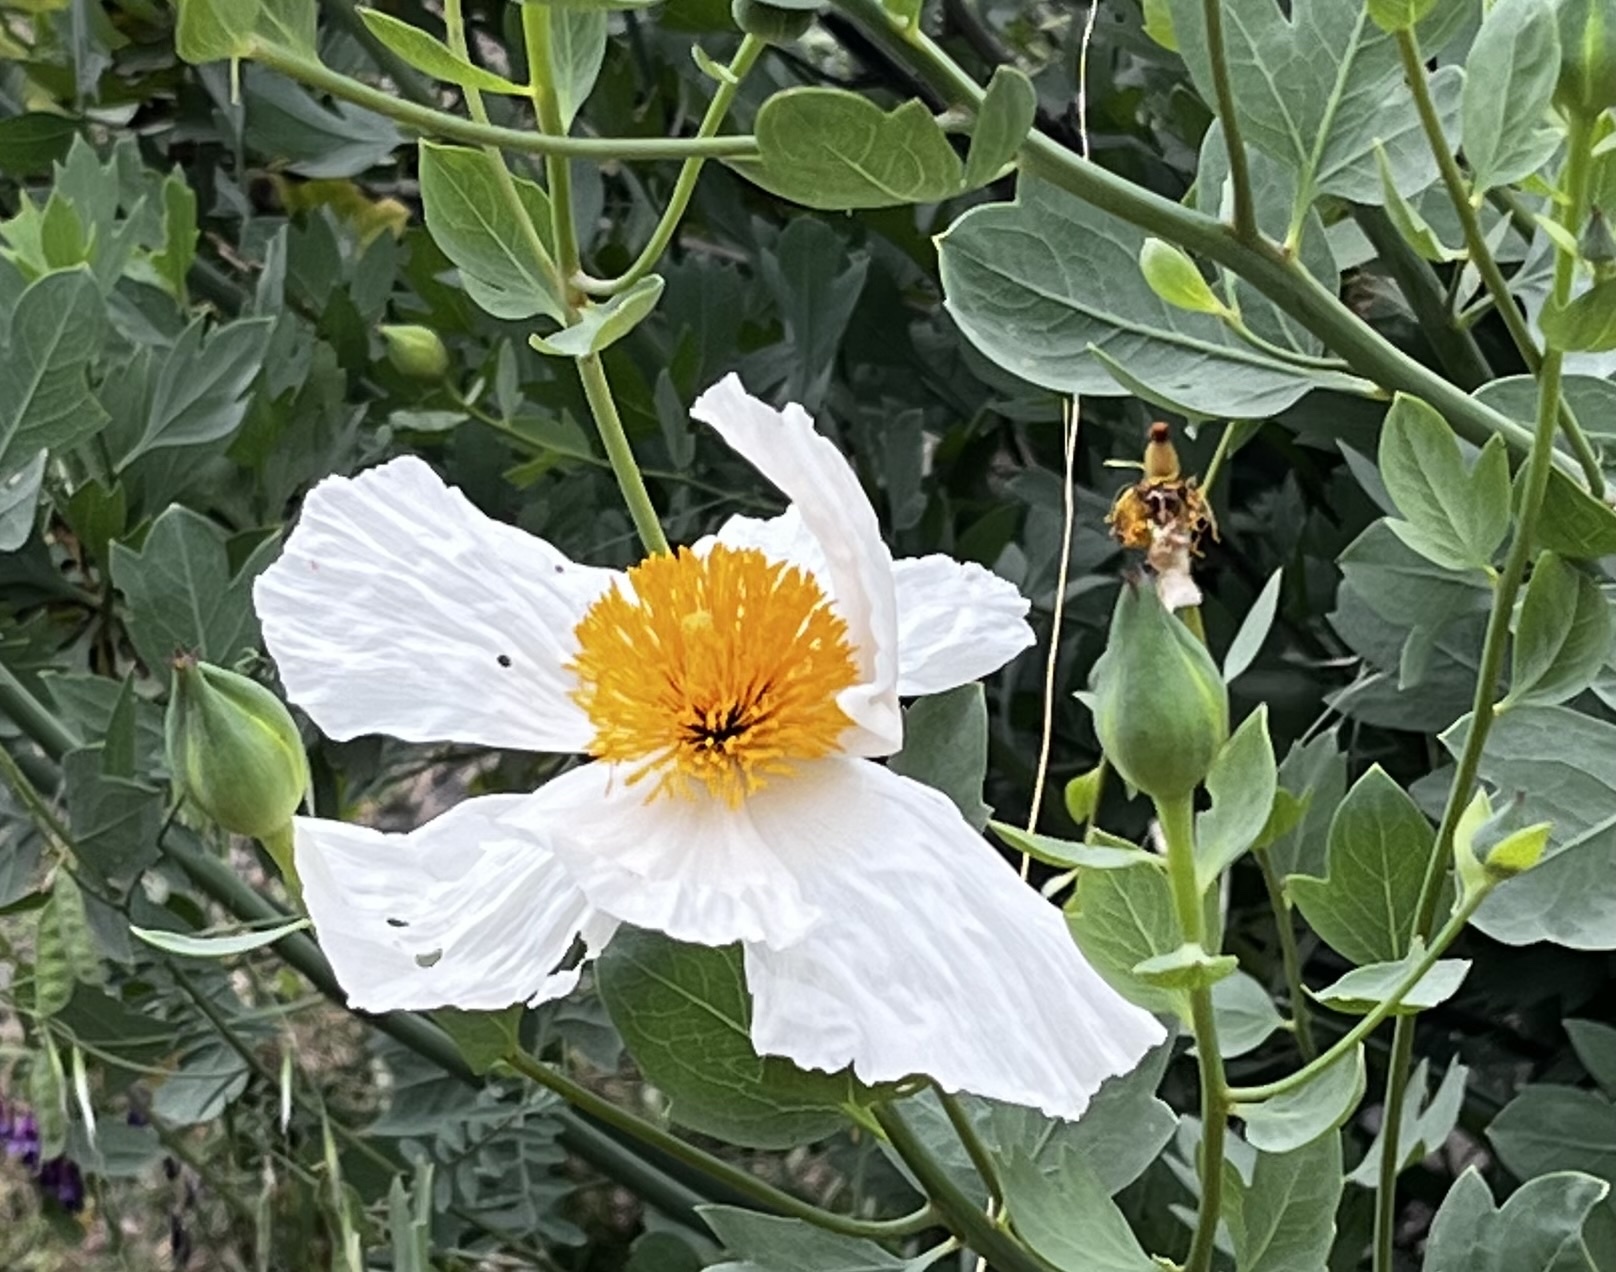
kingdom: Plantae
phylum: Tracheophyta
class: Magnoliopsida
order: Ranunculales
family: Papaveraceae
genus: Romneya
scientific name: Romneya coulteri
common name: California tree-poppy
